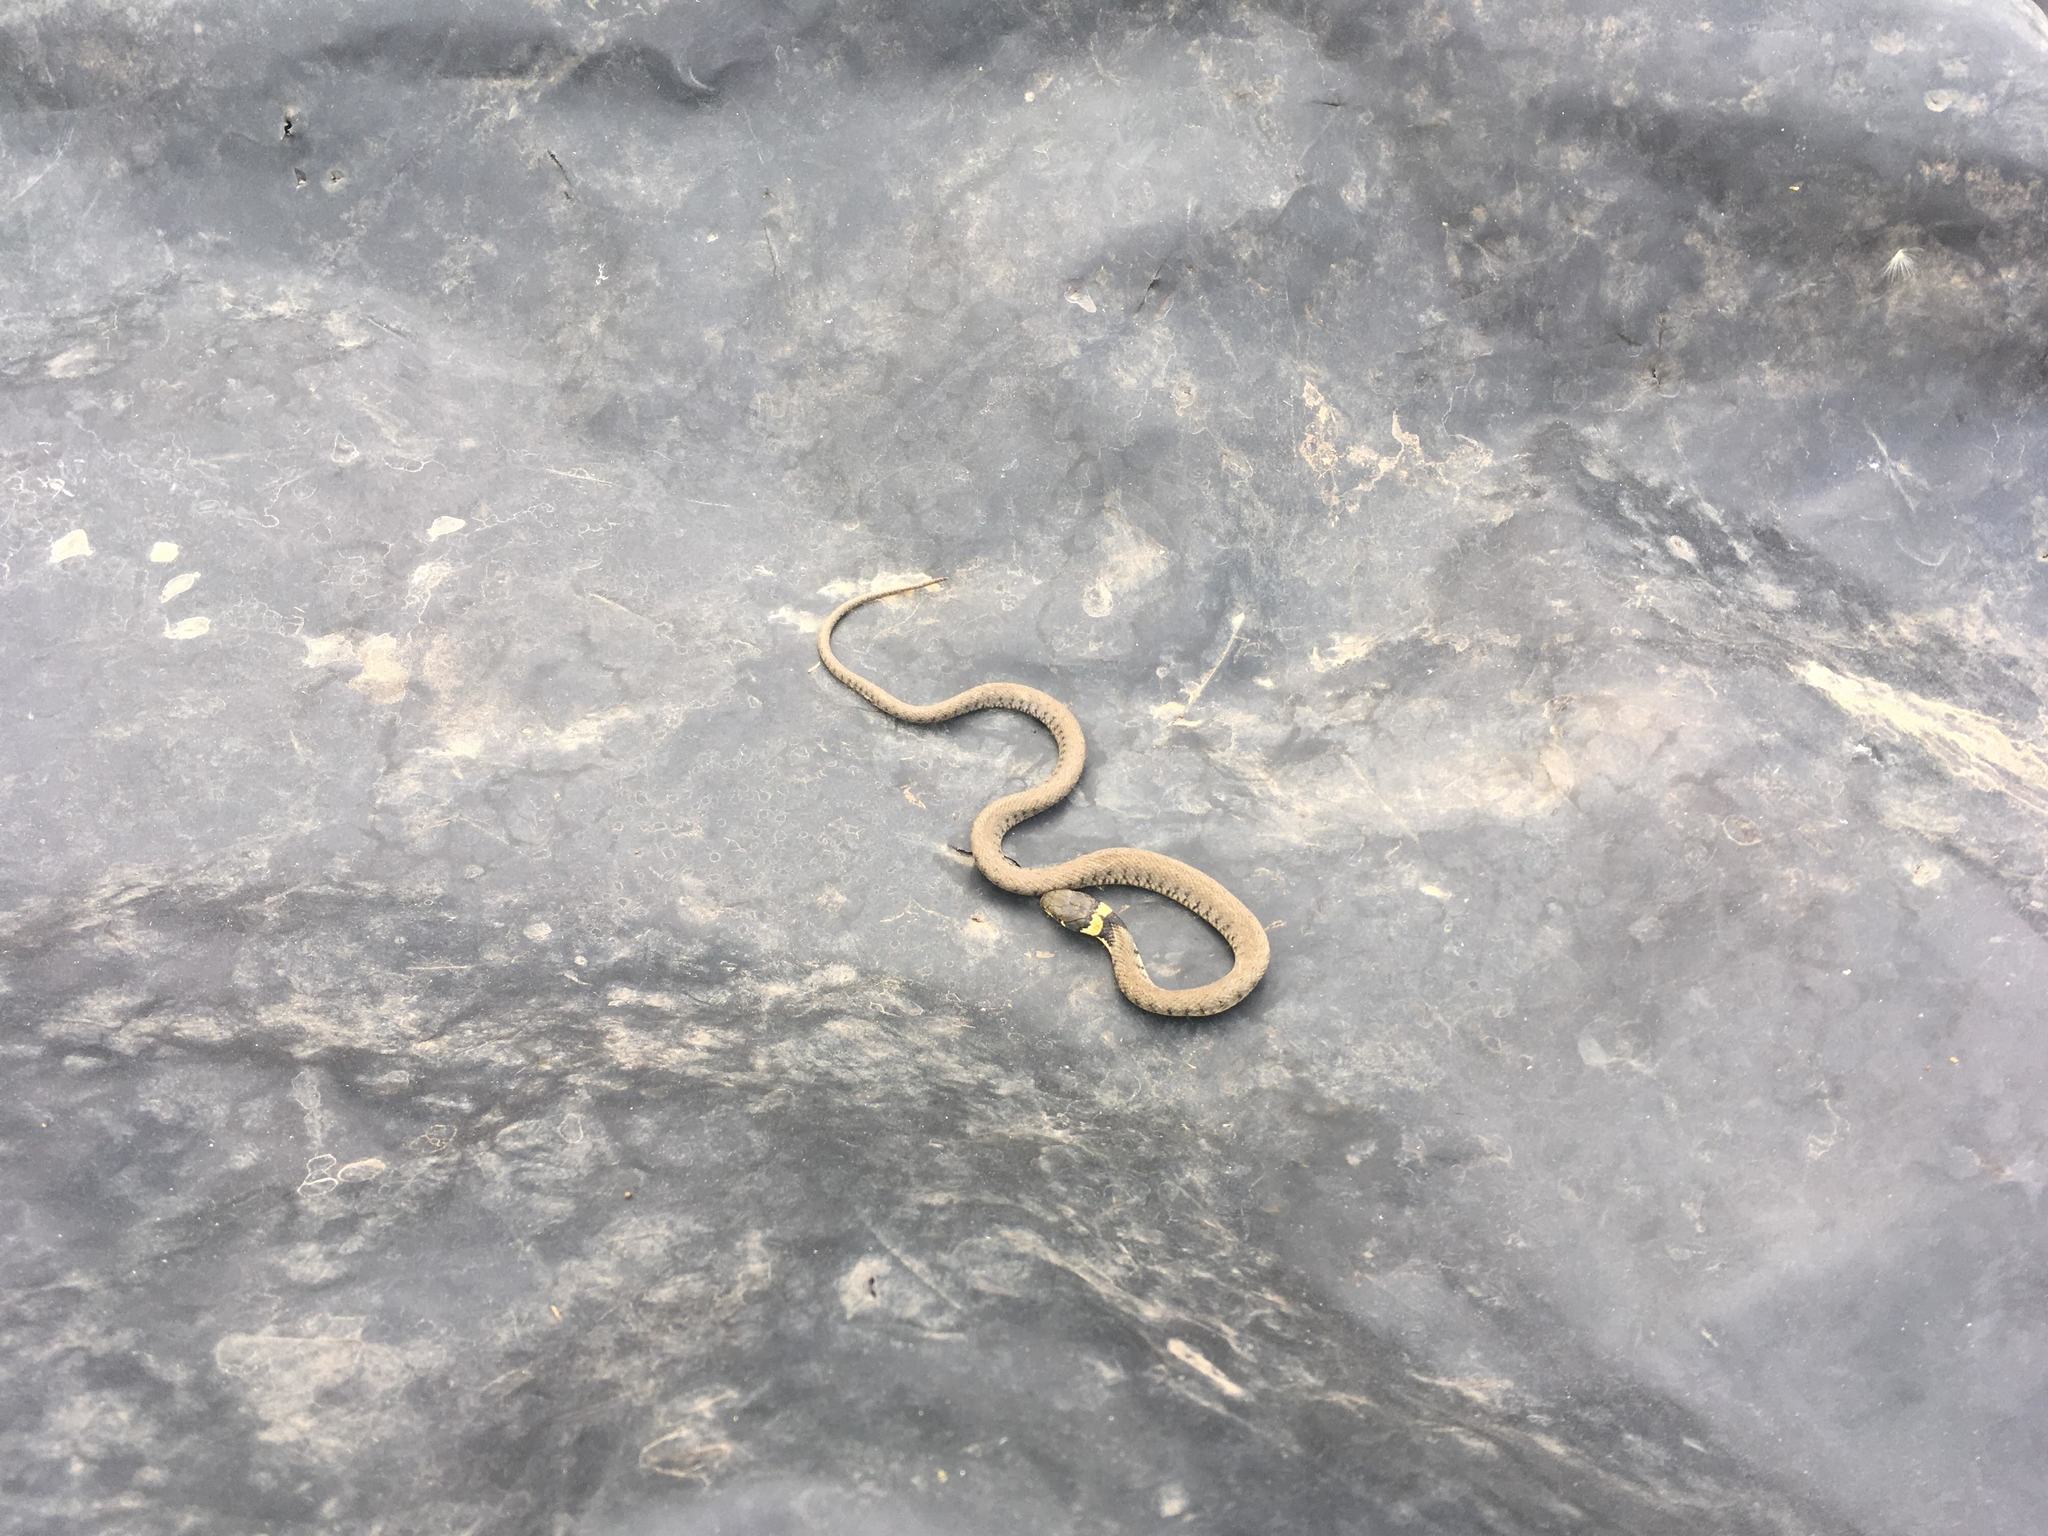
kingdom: Animalia
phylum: Chordata
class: Squamata
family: Colubridae
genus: Natrix
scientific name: Natrix helvetica
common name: Banded grass snake
